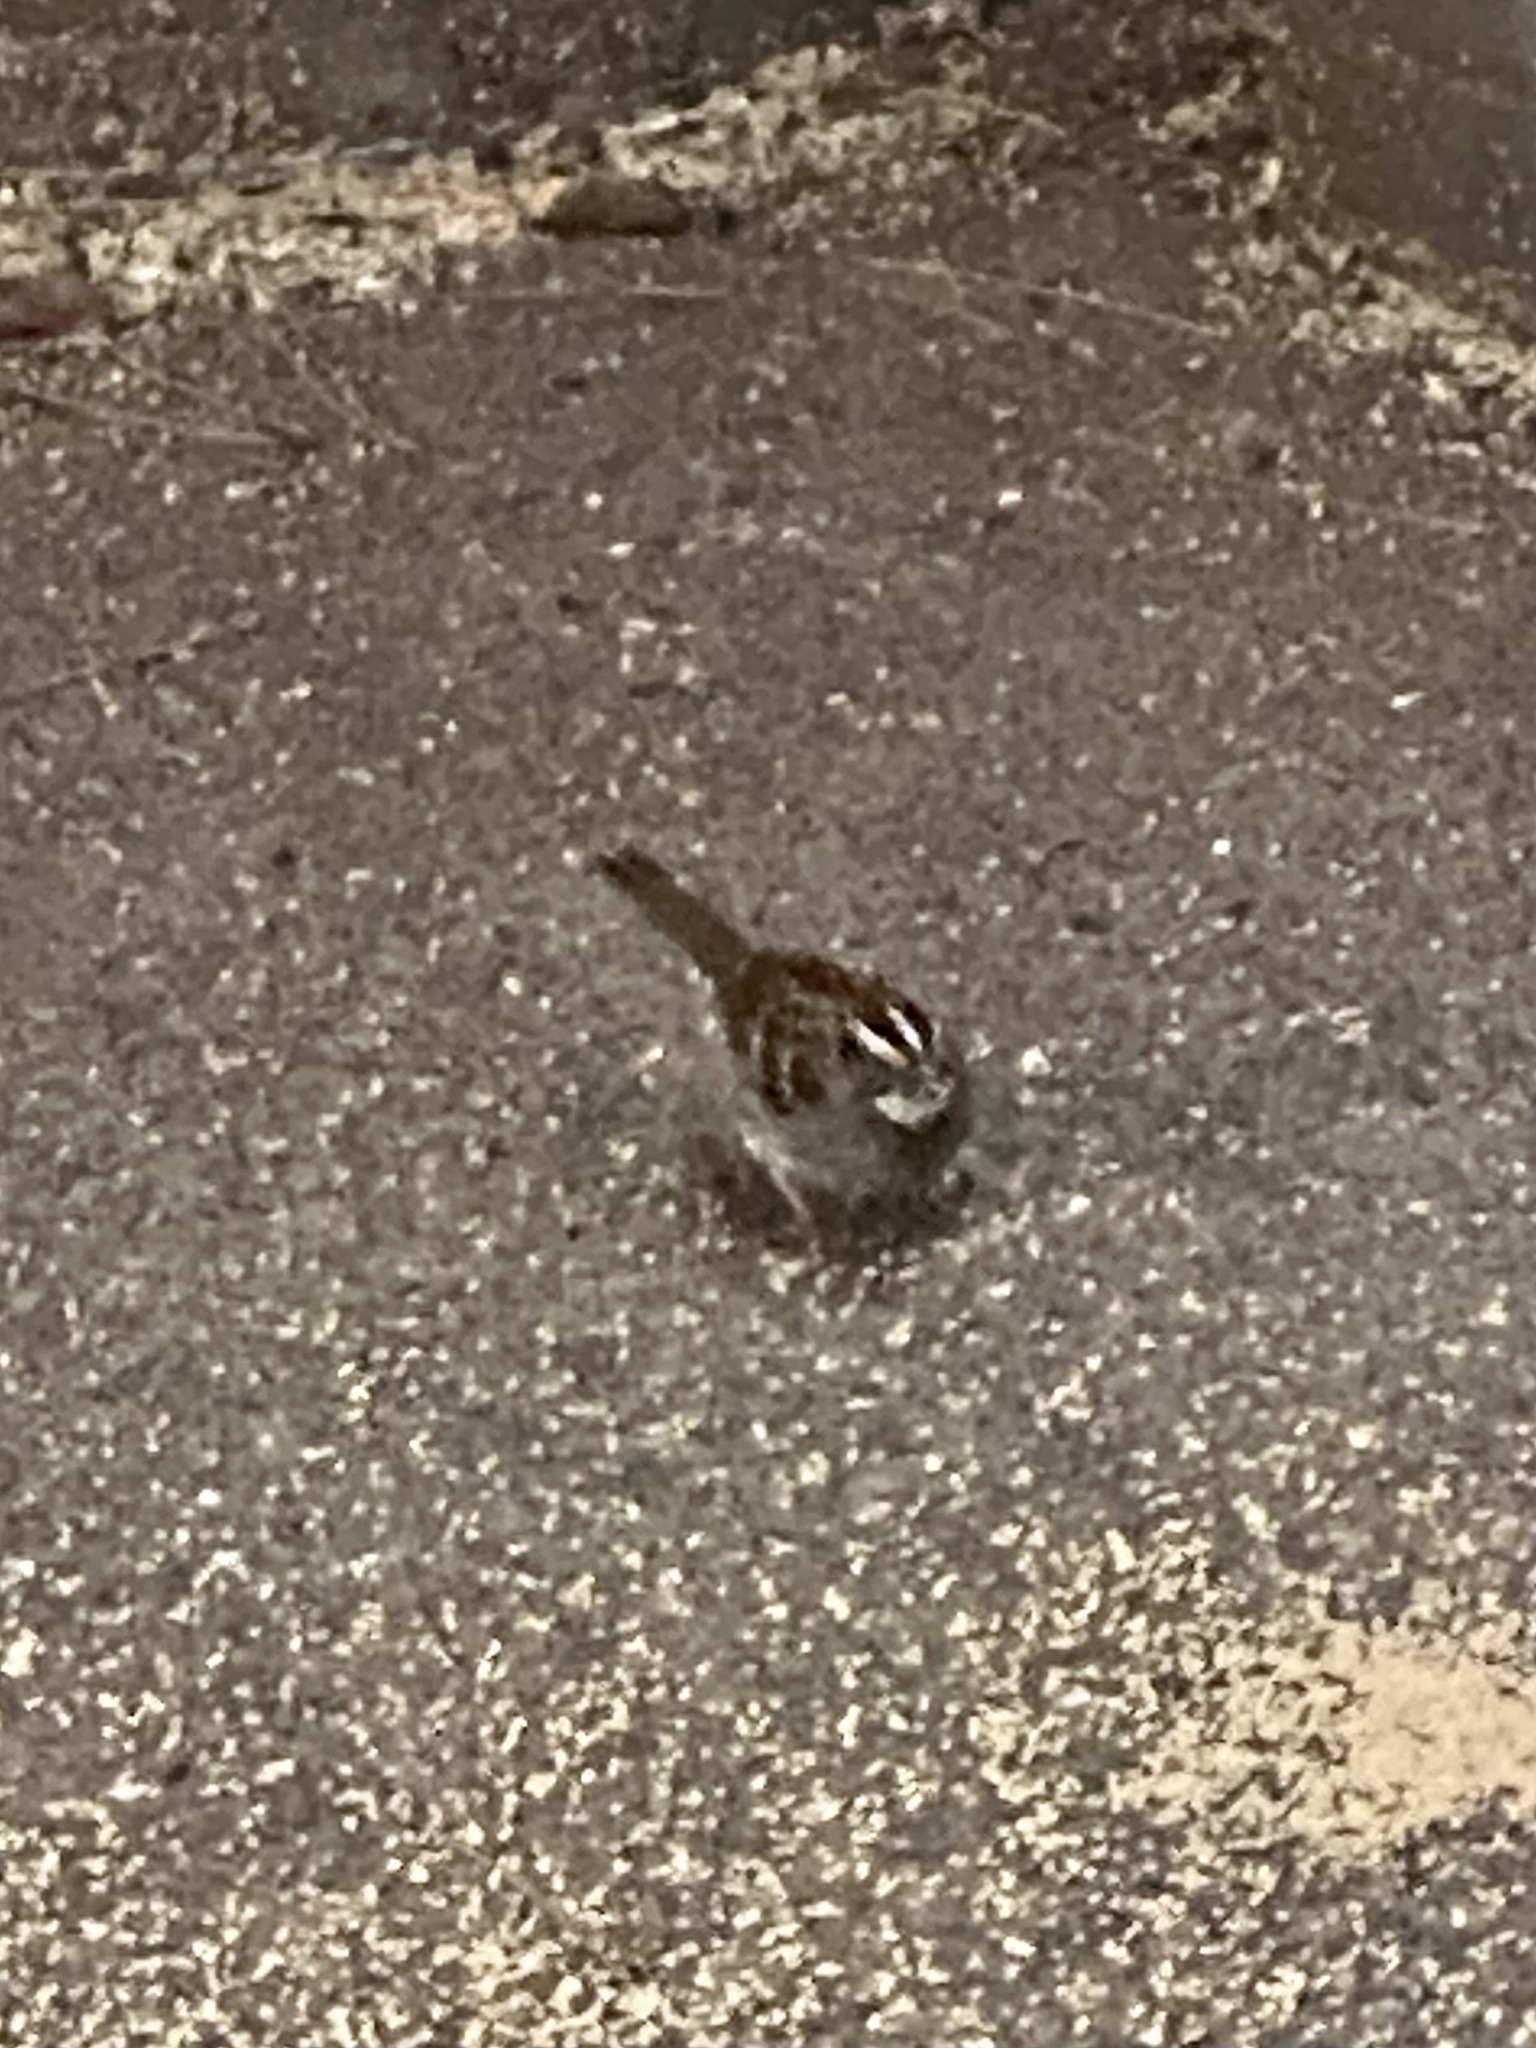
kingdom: Animalia
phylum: Chordata
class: Aves
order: Passeriformes
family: Passerellidae
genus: Zonotrichia
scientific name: Zonotrichia albicollis
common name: White-throated sparrow
